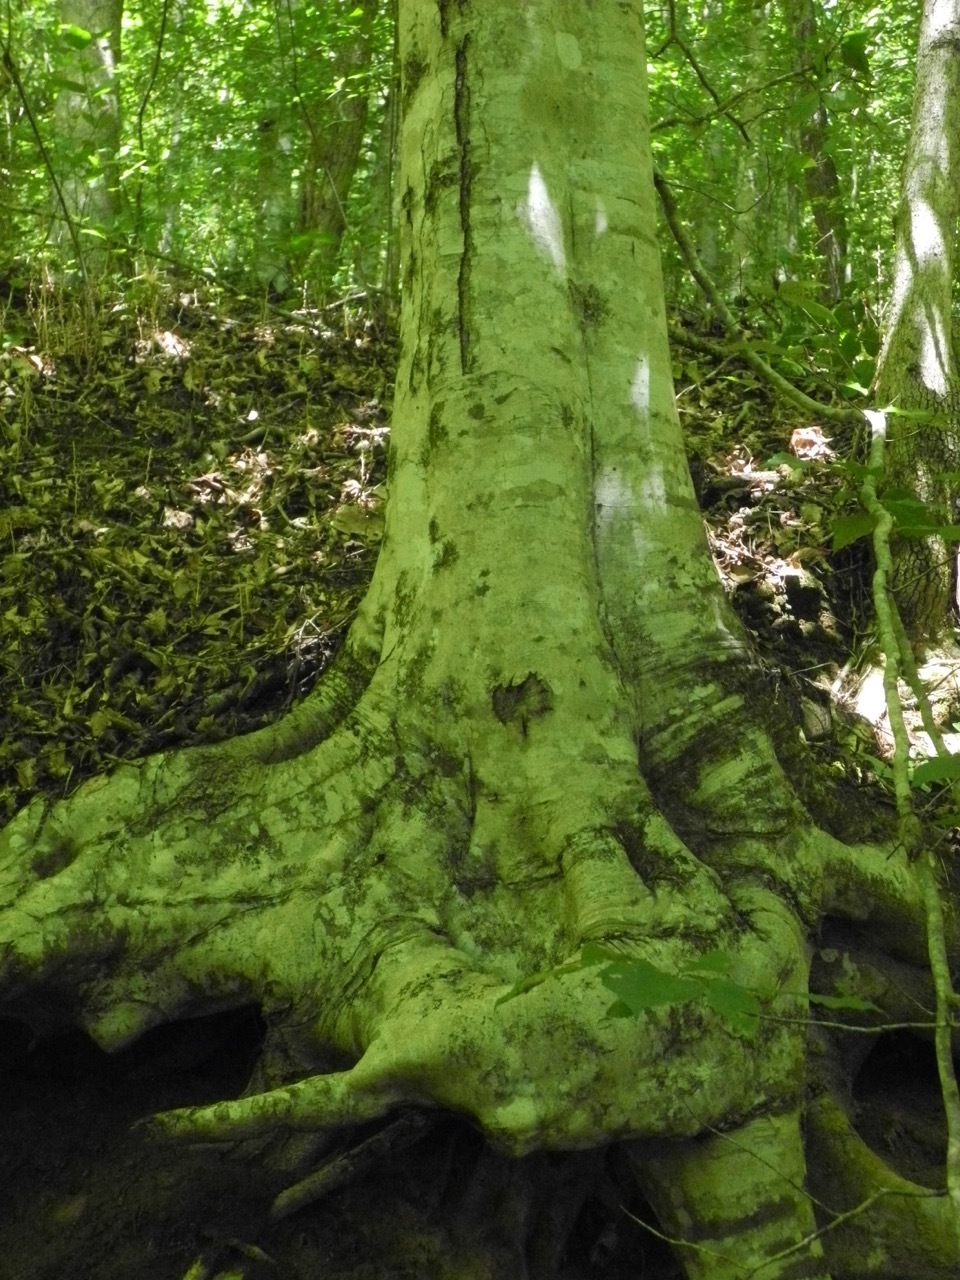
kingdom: Plantae
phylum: Tracheophyta
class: Magnoliopsida
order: Fagales
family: Fagaceae
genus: Fagus
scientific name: Fagus grandifolia
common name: American beech
